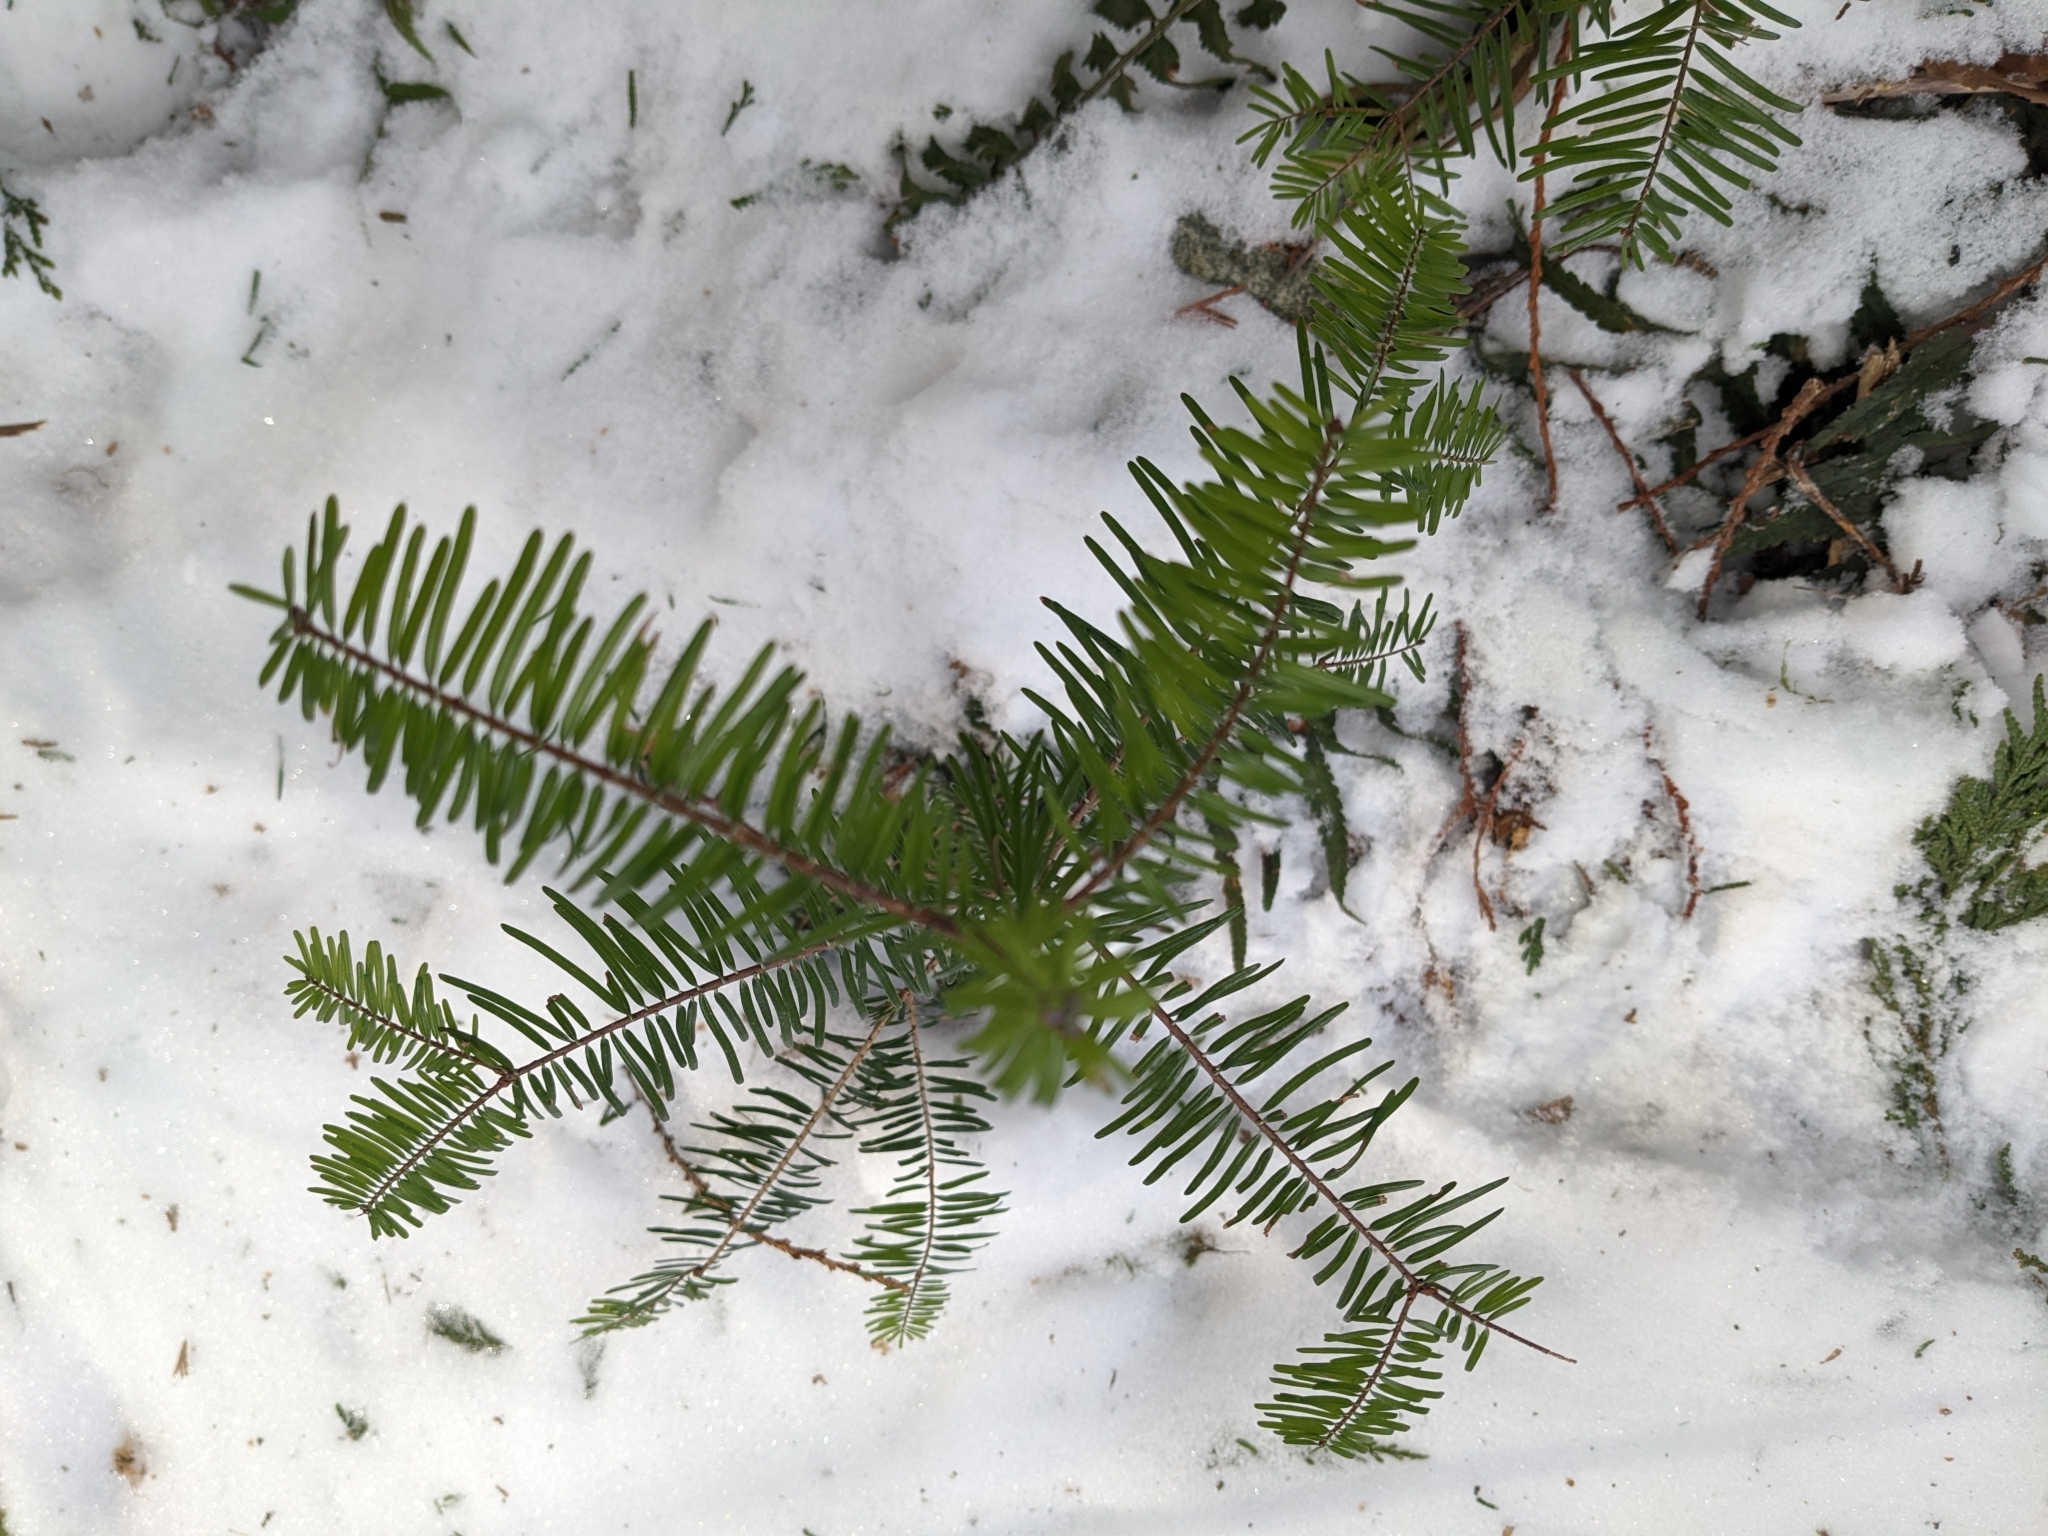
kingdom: Plantae
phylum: Tracheophyta
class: Pinopsida
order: Pinales
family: Pinaceae
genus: Abies
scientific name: Abies grandis
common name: Giant fir
